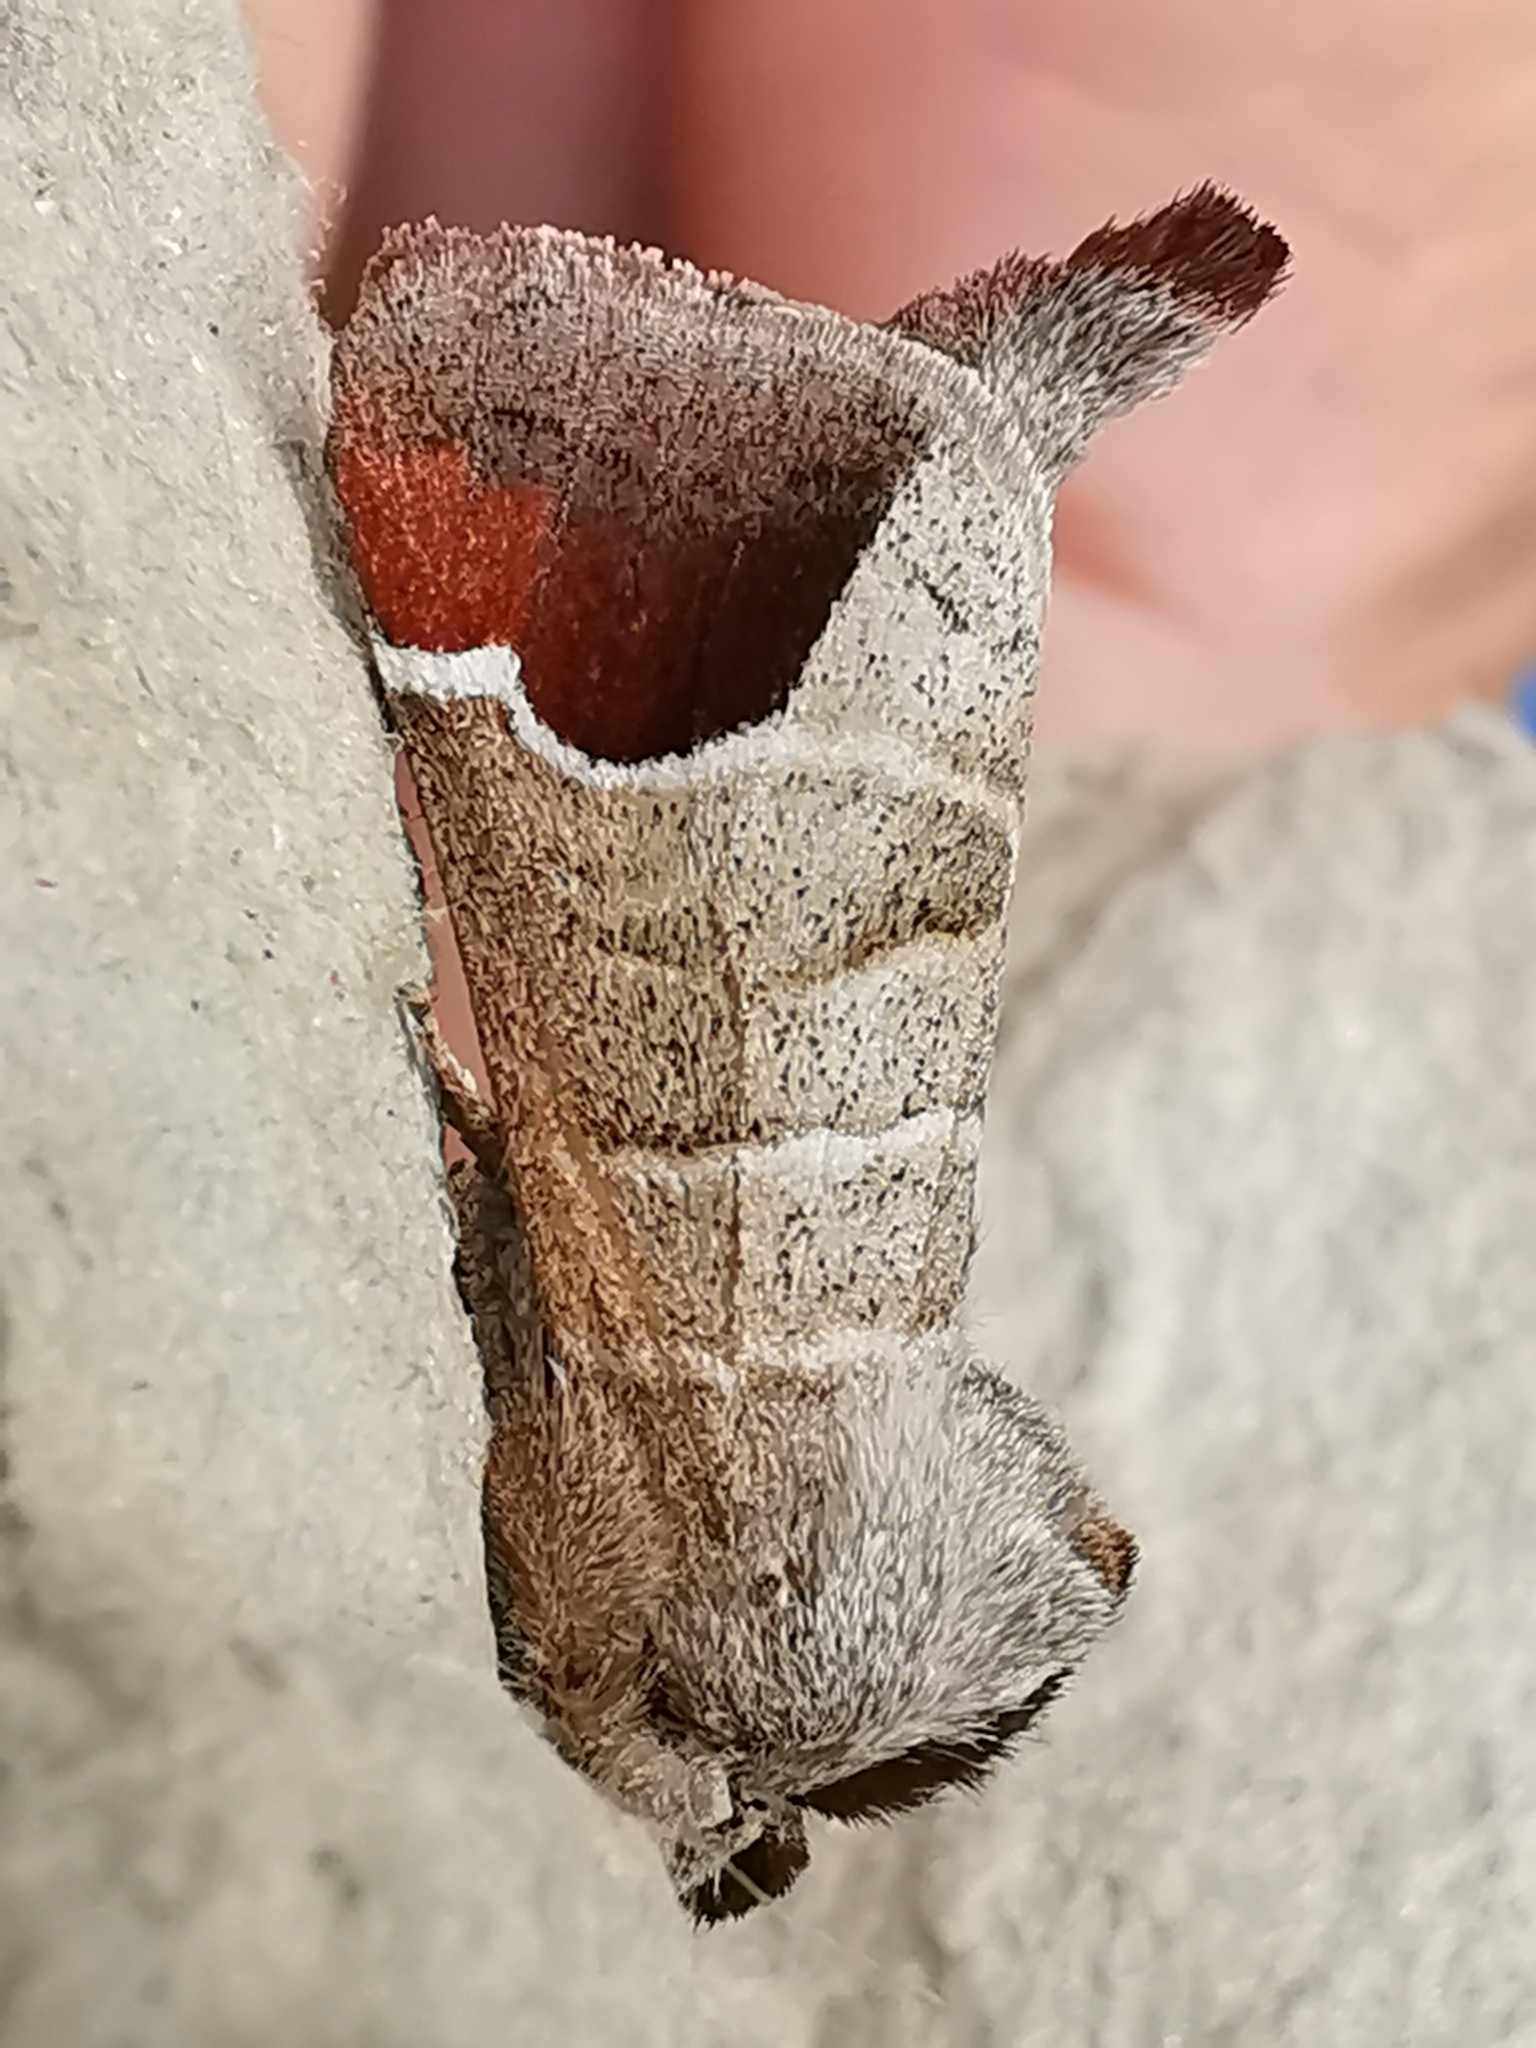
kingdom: Animalia
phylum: Arthropoda
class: Insecta
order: Lepidoptera
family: Notodontidae
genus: Clostera
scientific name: Clostera curtula
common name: Chocolate-tip
